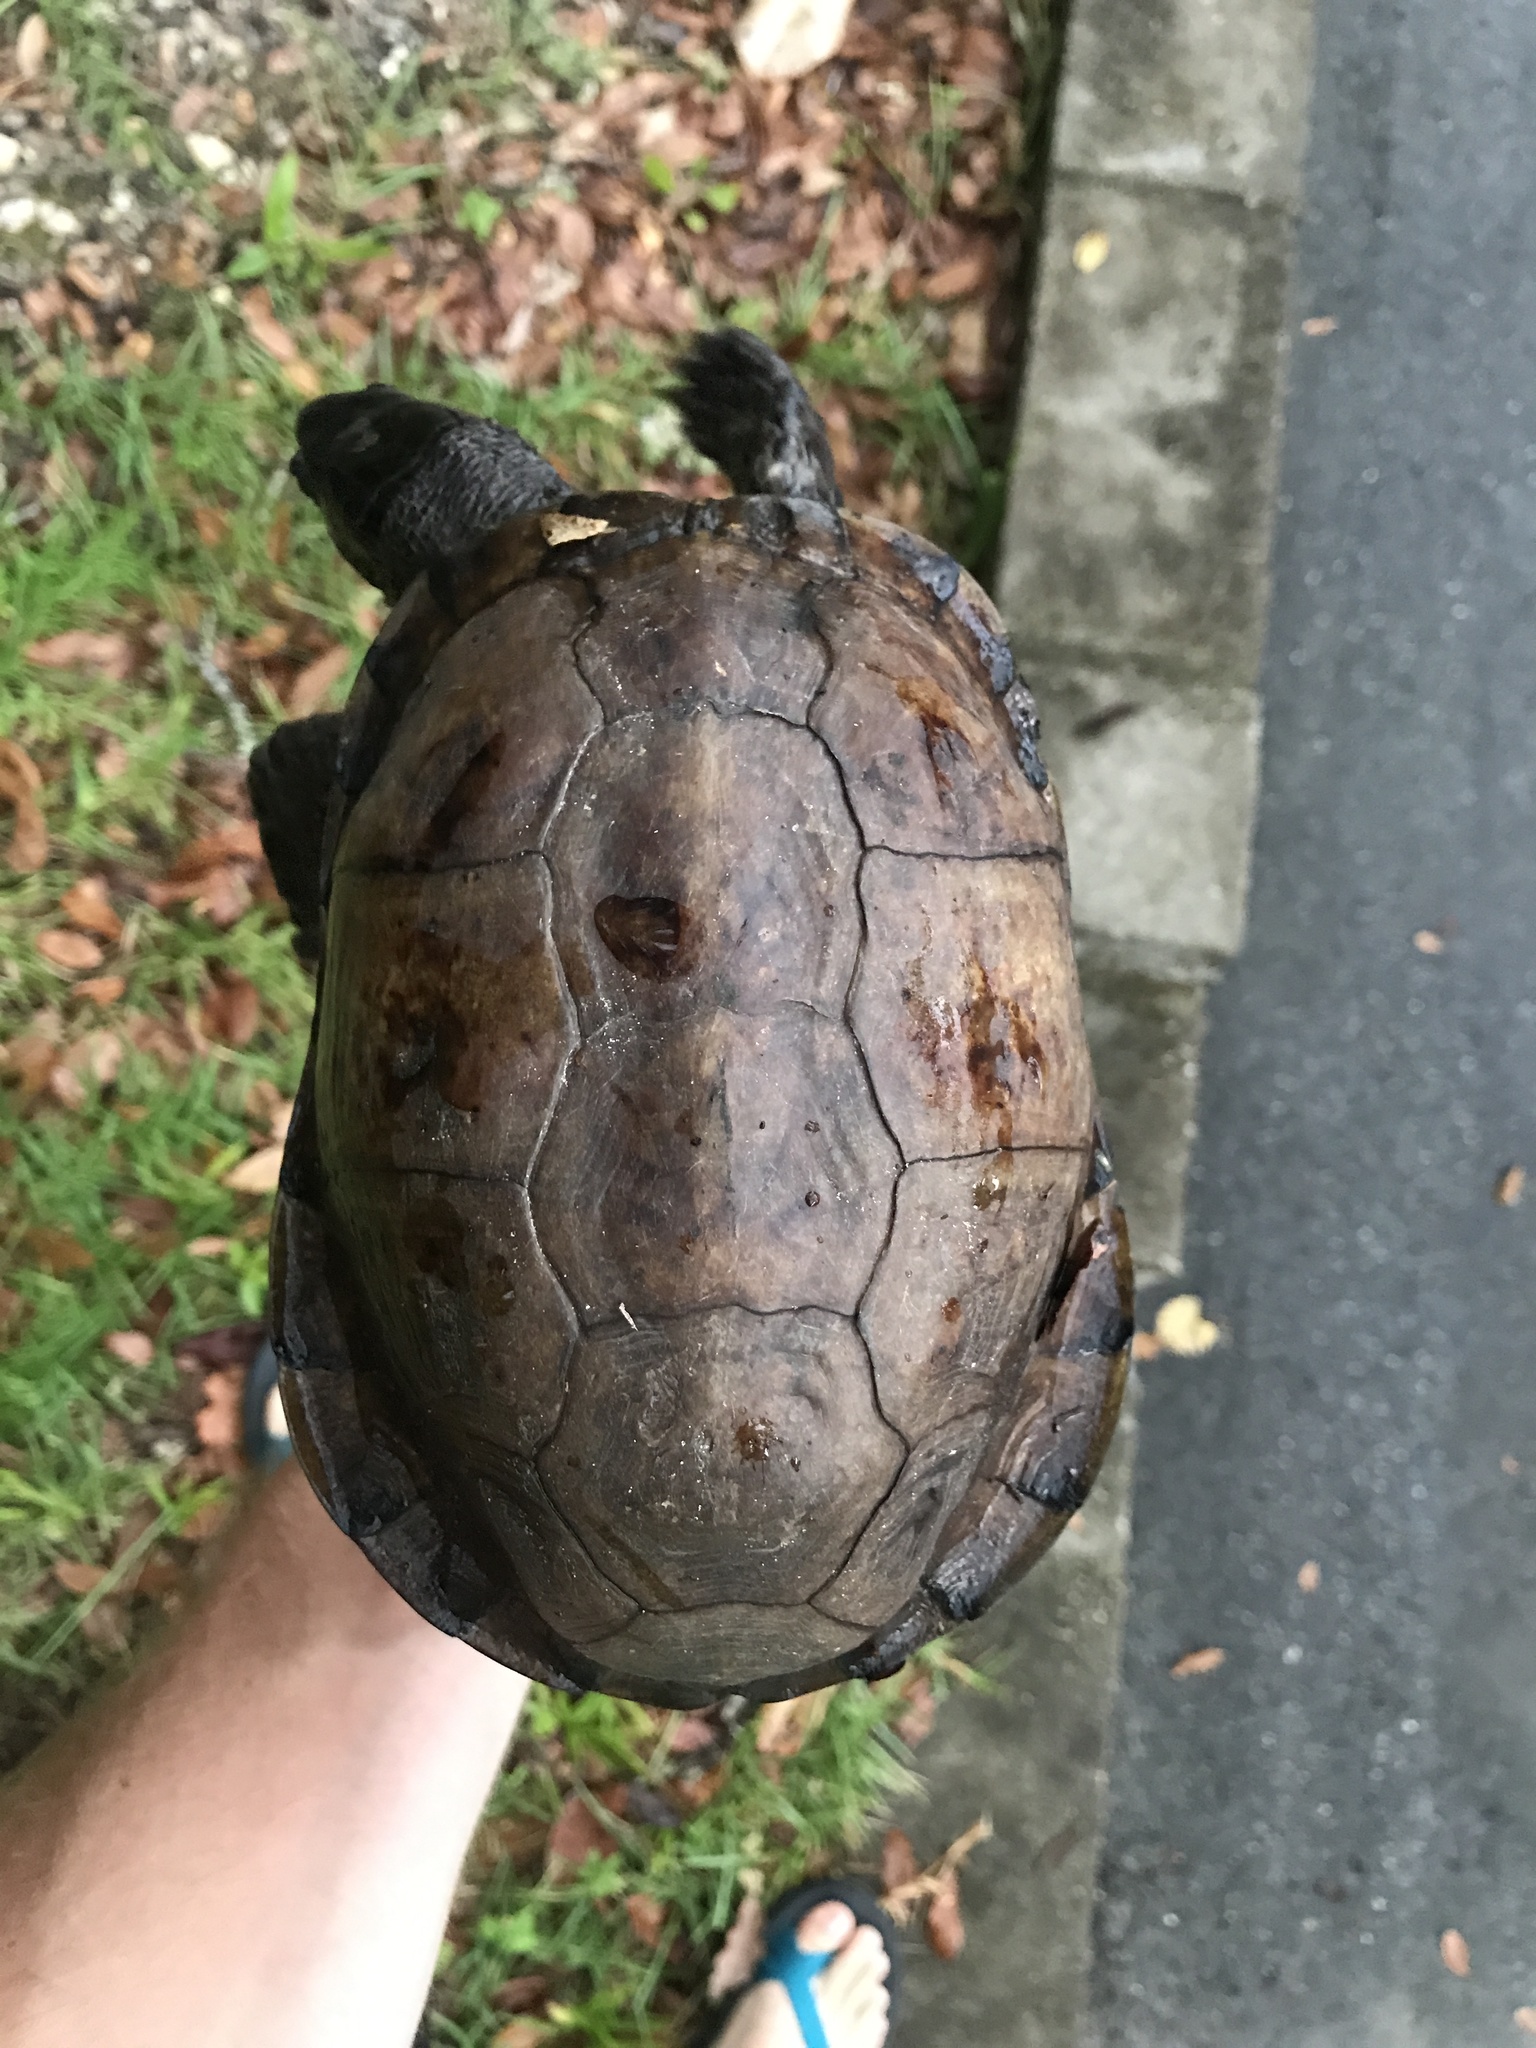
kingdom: Animalia
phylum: Chordata
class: Testudines
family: Emydidae
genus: Terrapene
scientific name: Terrapene carolina
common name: Common box turtle
